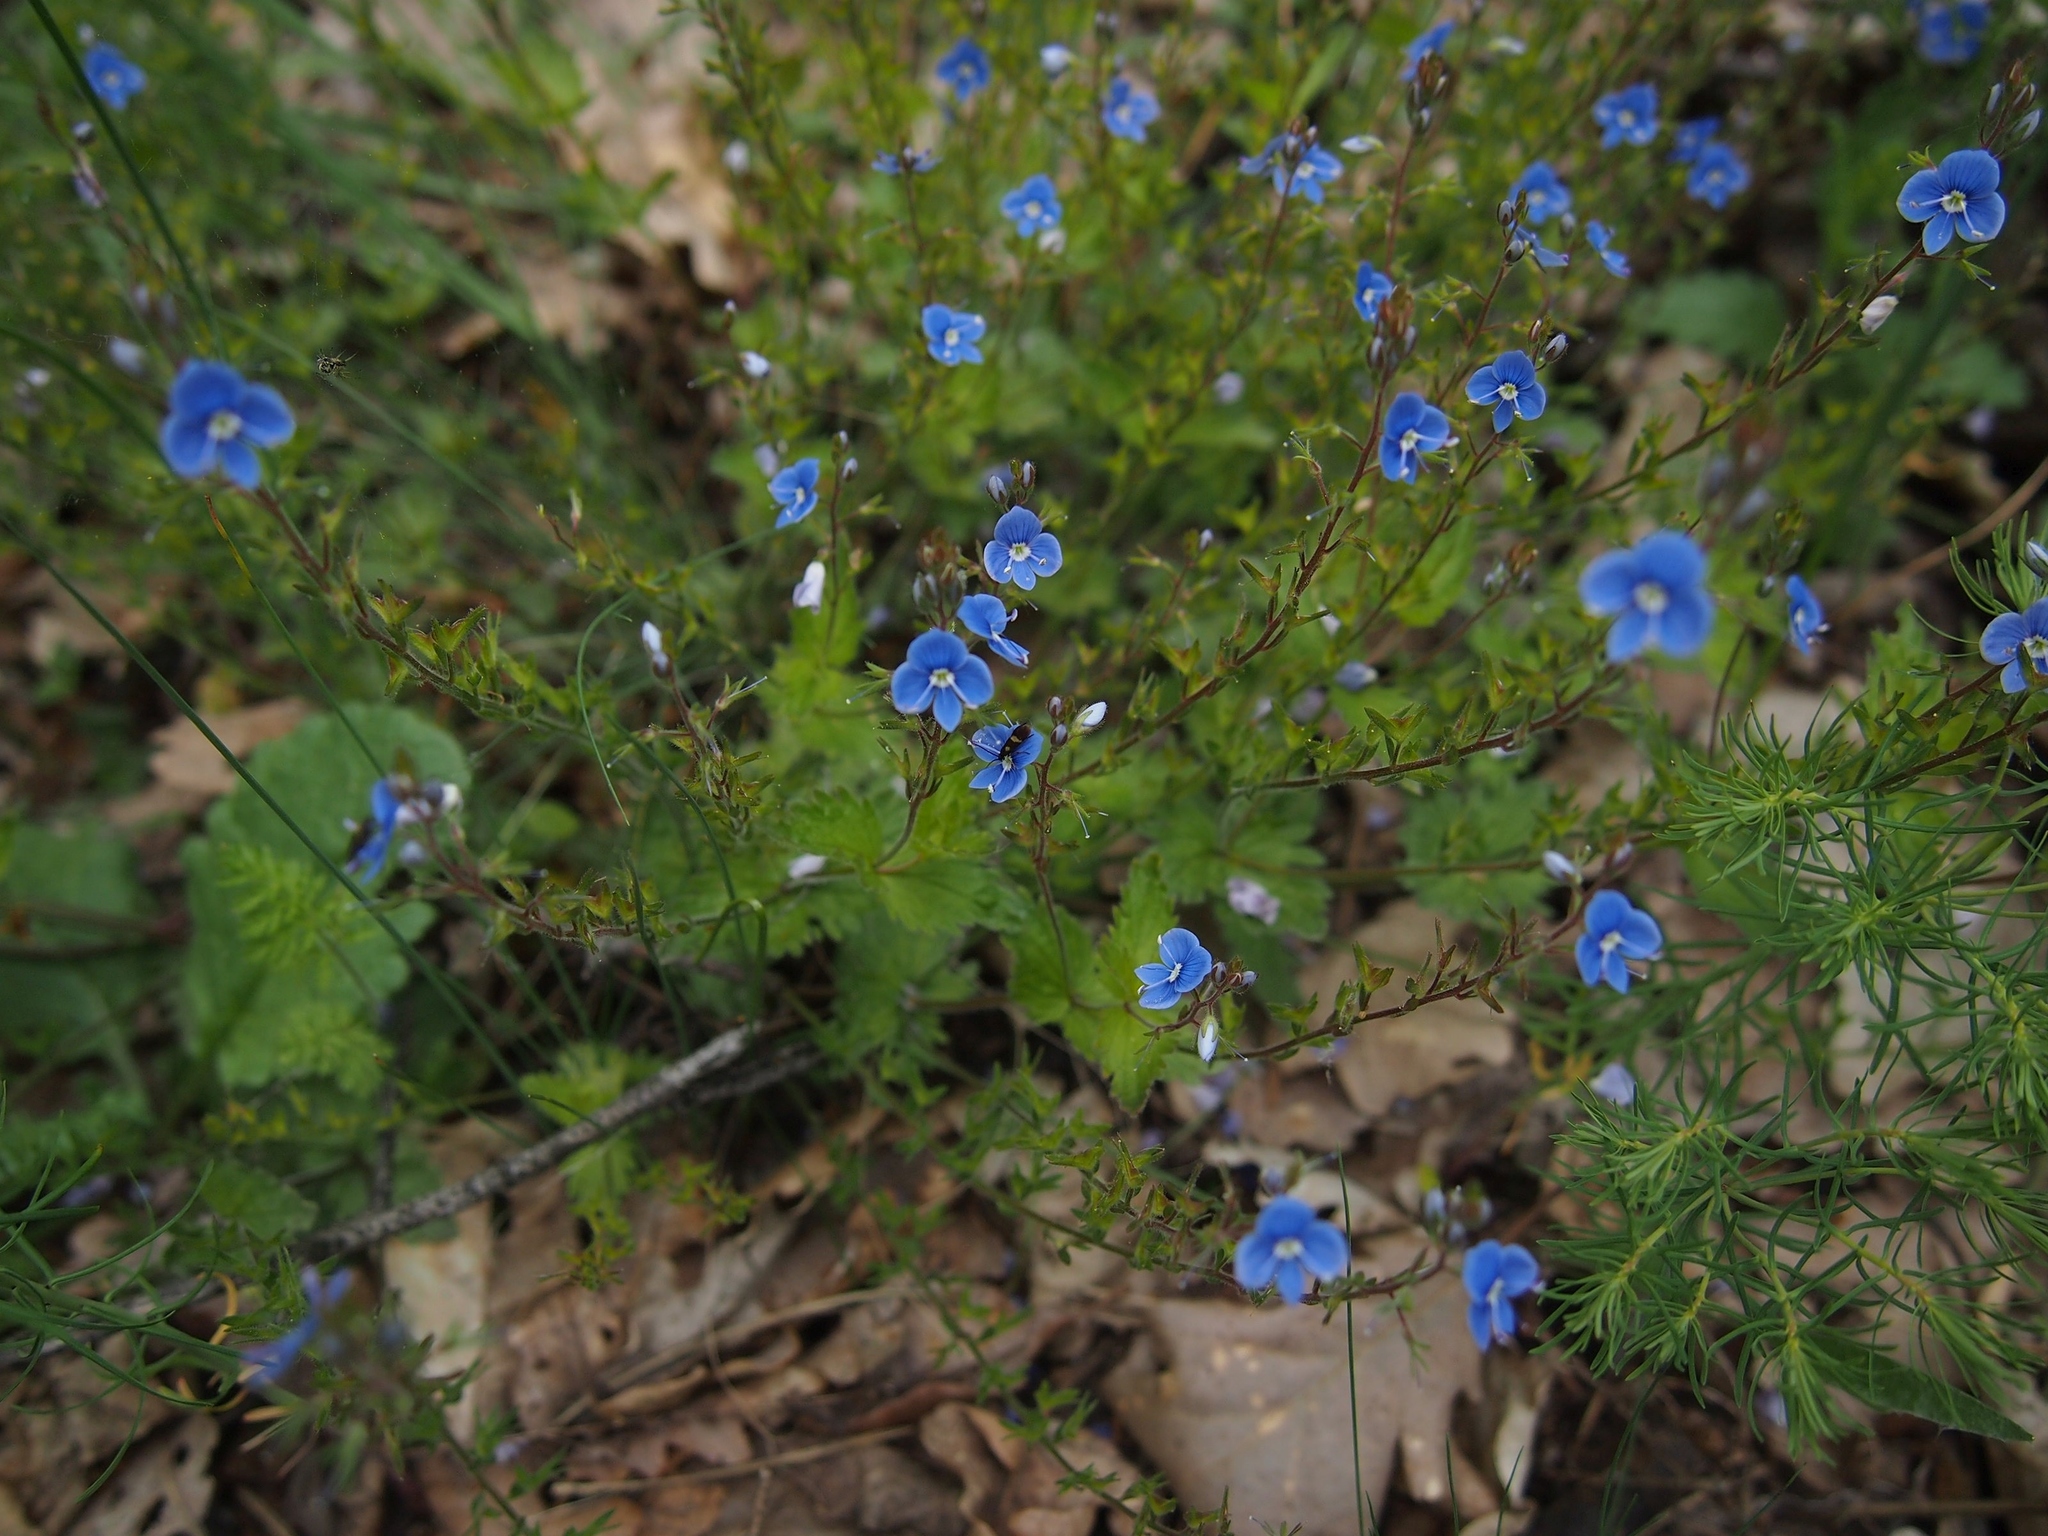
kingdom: Plantae
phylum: Tracheophyta
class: Magnoliopsida
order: Lamiales
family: Plantaginaceae
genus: Veronica
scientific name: Veronica chamaedrys
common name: Germander speedwell
